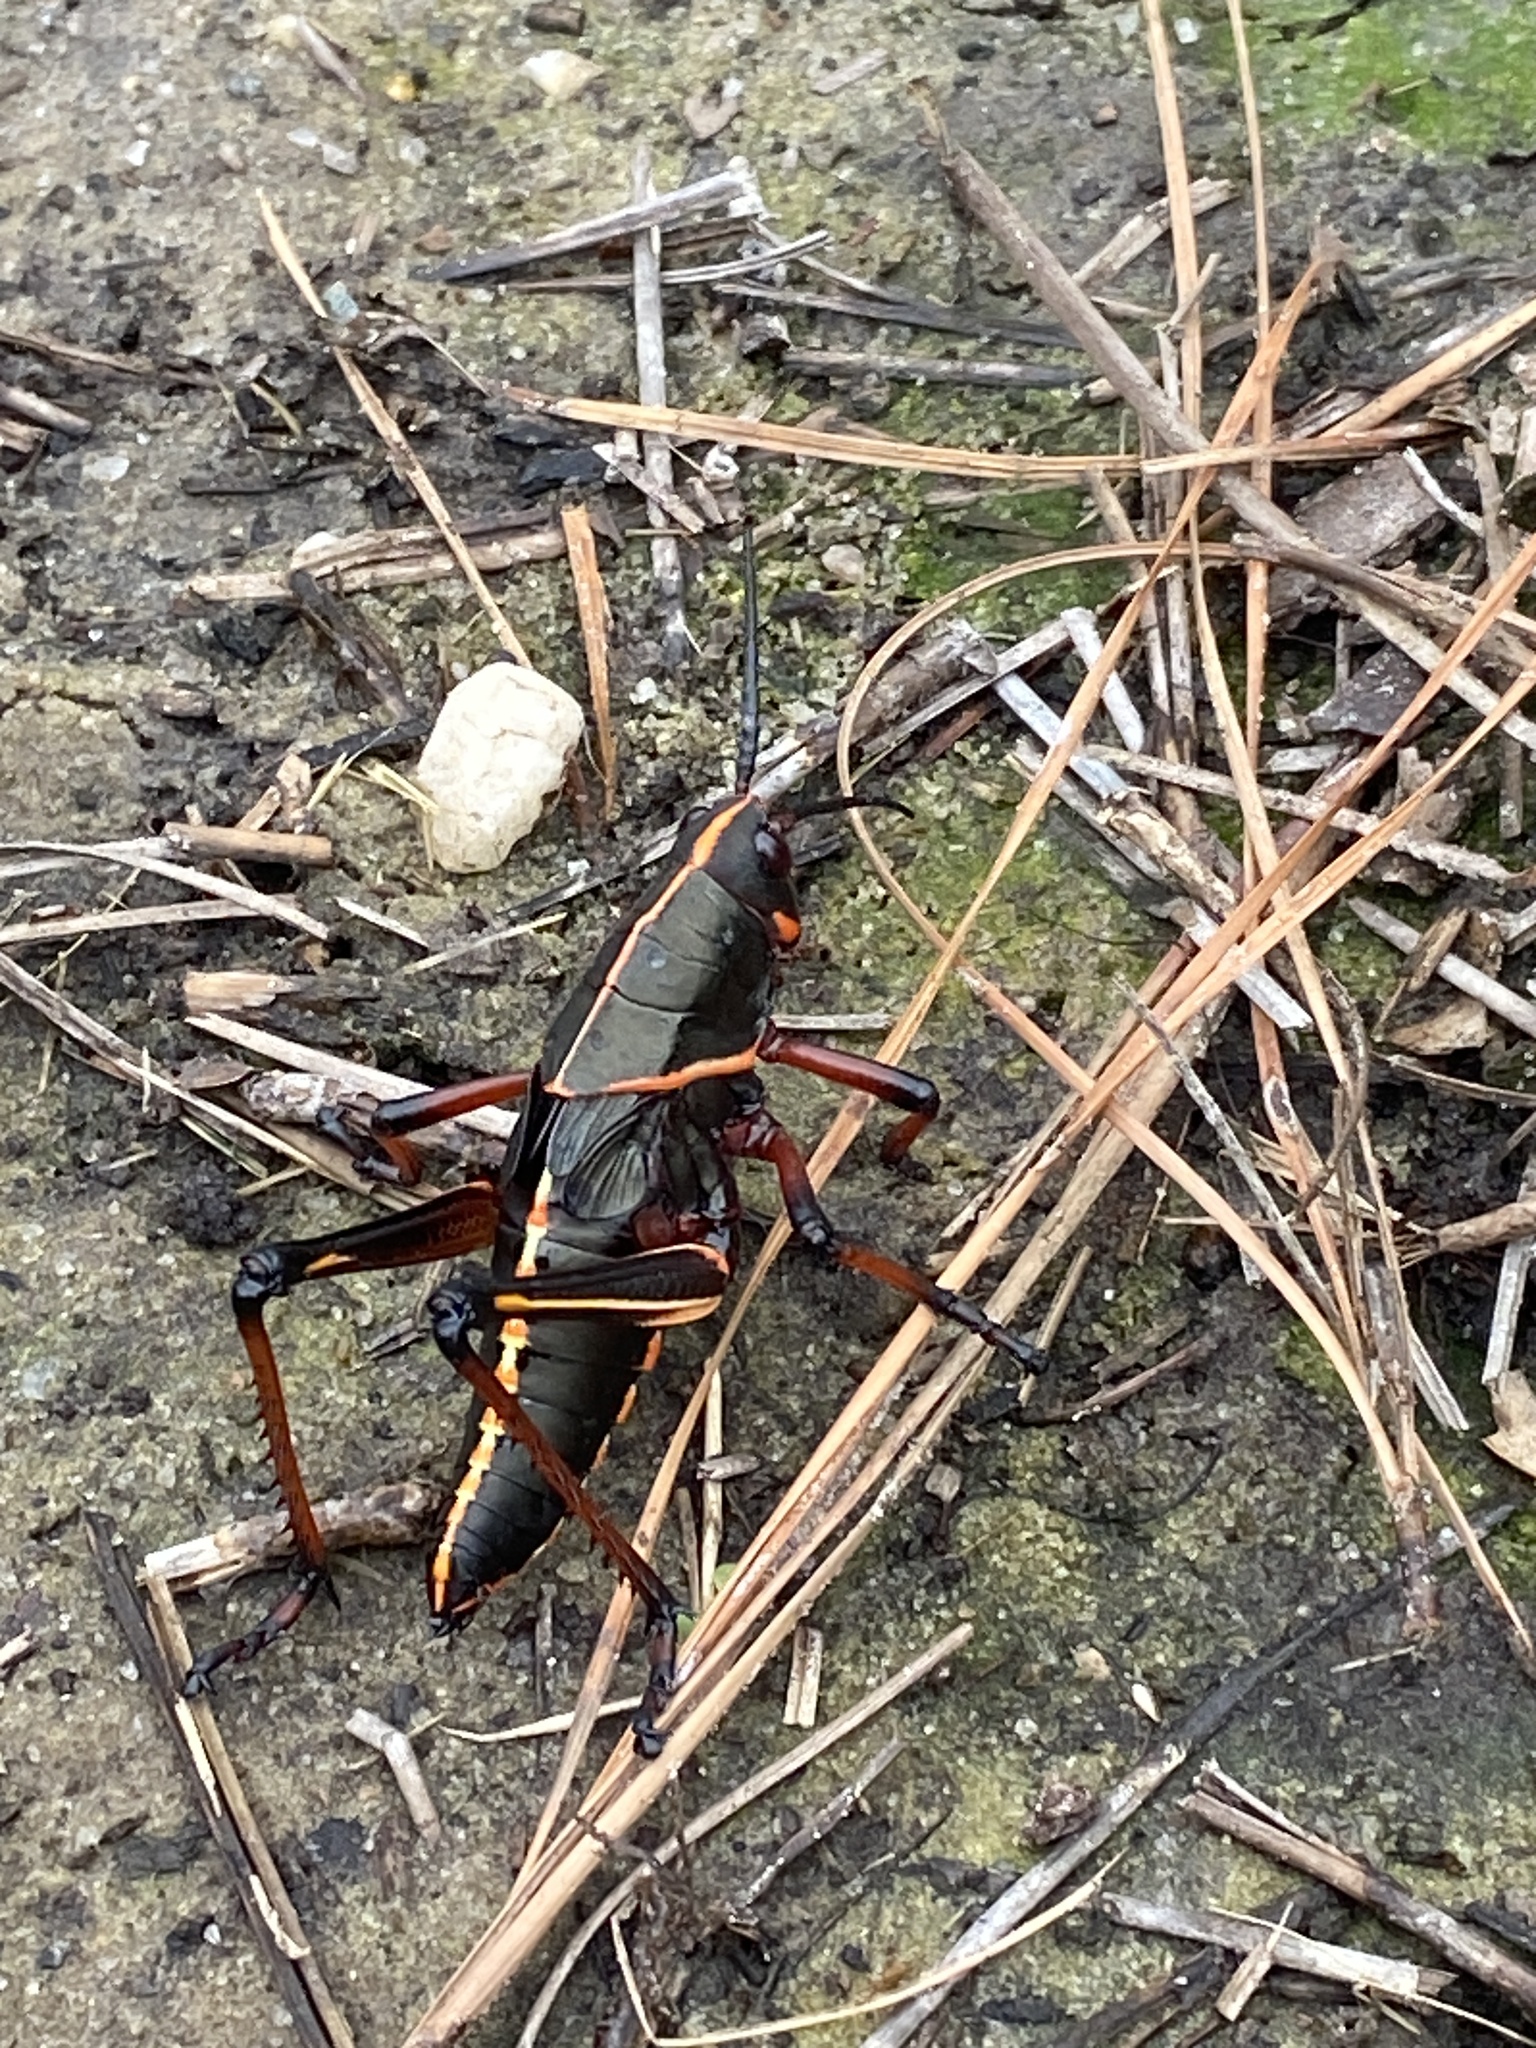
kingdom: Animalia
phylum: Arthropoda
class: Insecta
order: Orthoptera
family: Romaleidae
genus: Romalea
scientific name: Romalea microptera
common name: Eastern lubber grasshopper
